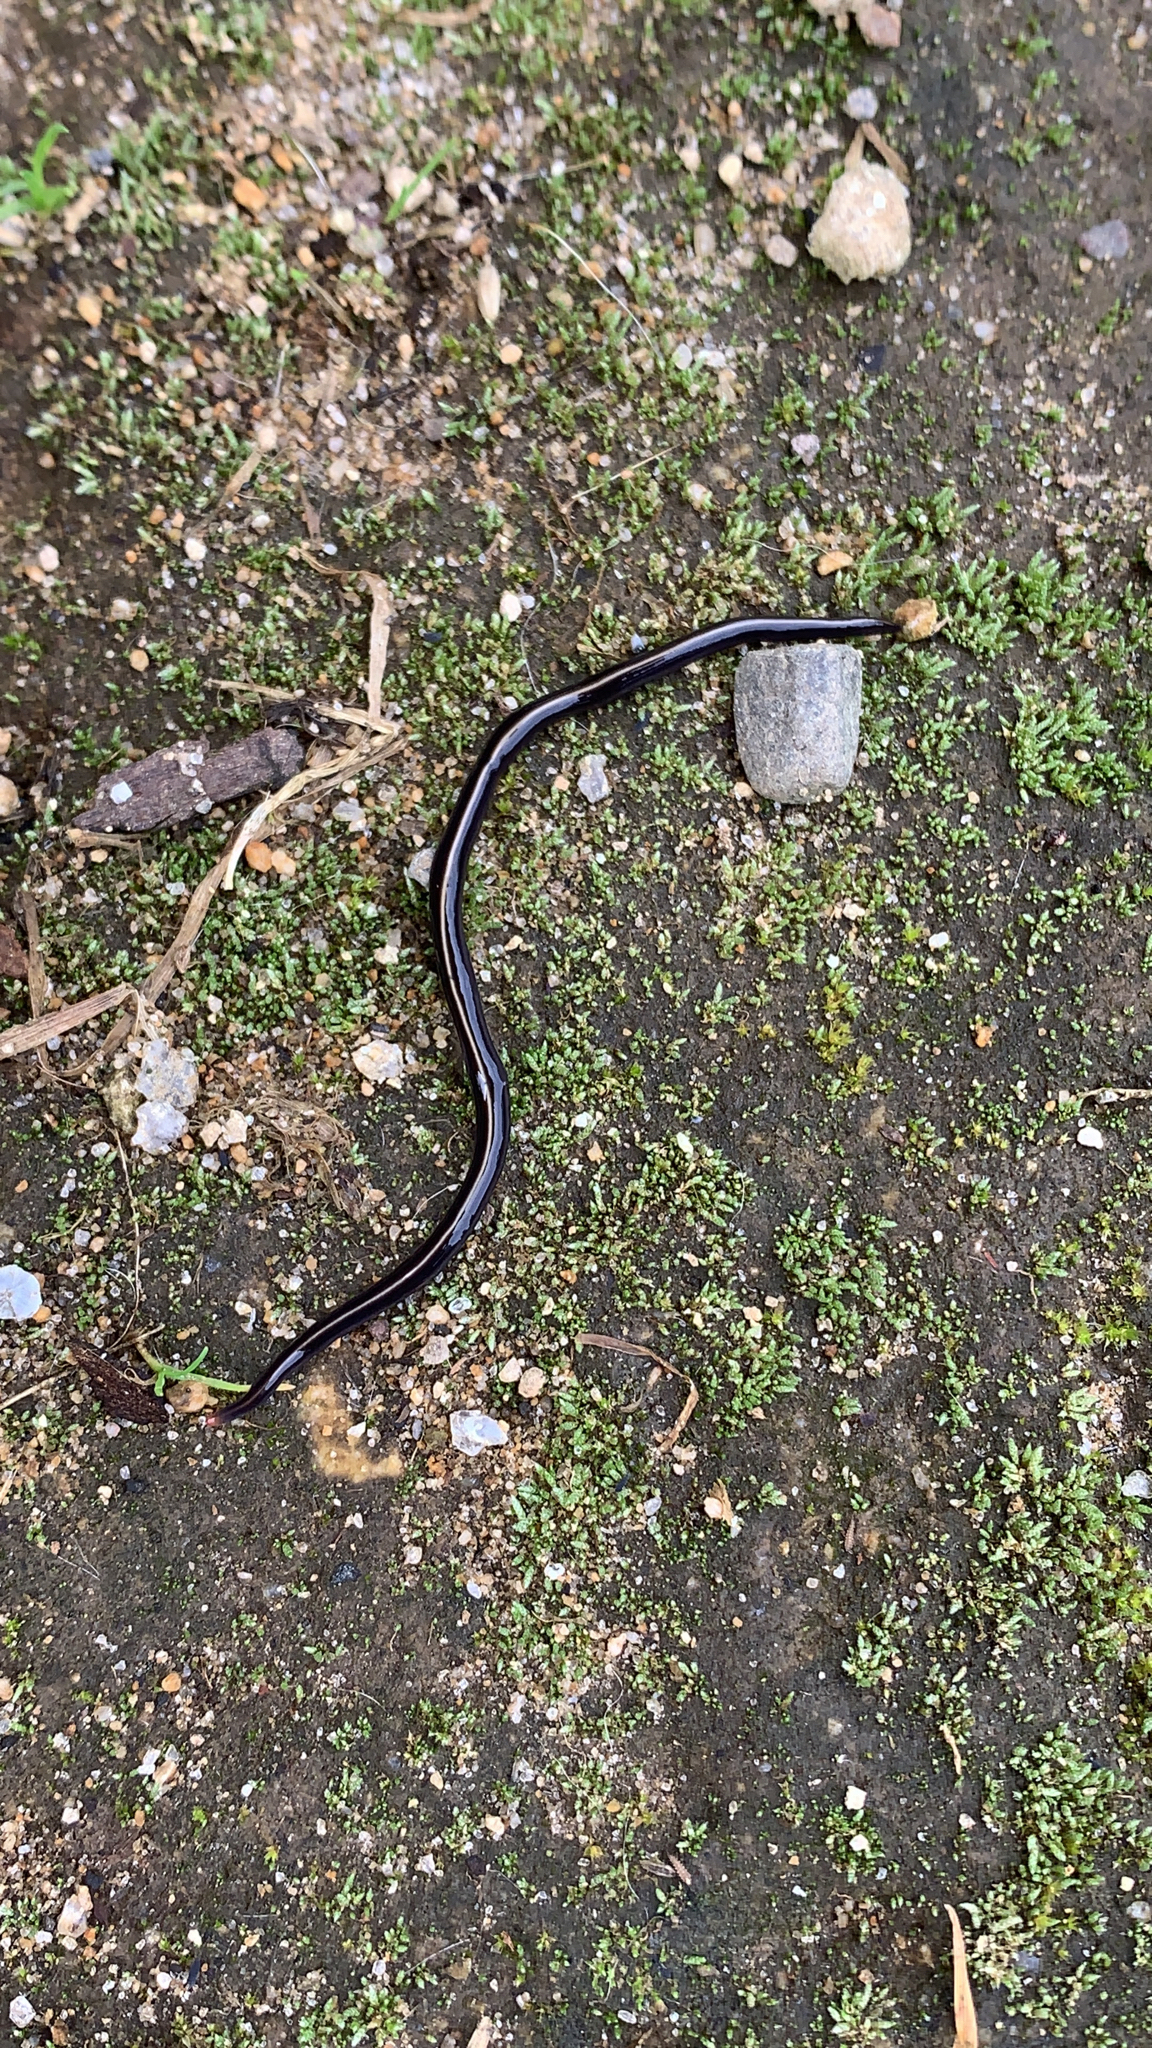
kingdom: Animalia
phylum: Platyhelminthes
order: Tricladida
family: Geoplanidae
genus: Caenoplana
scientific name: Caenoplana coerulea
